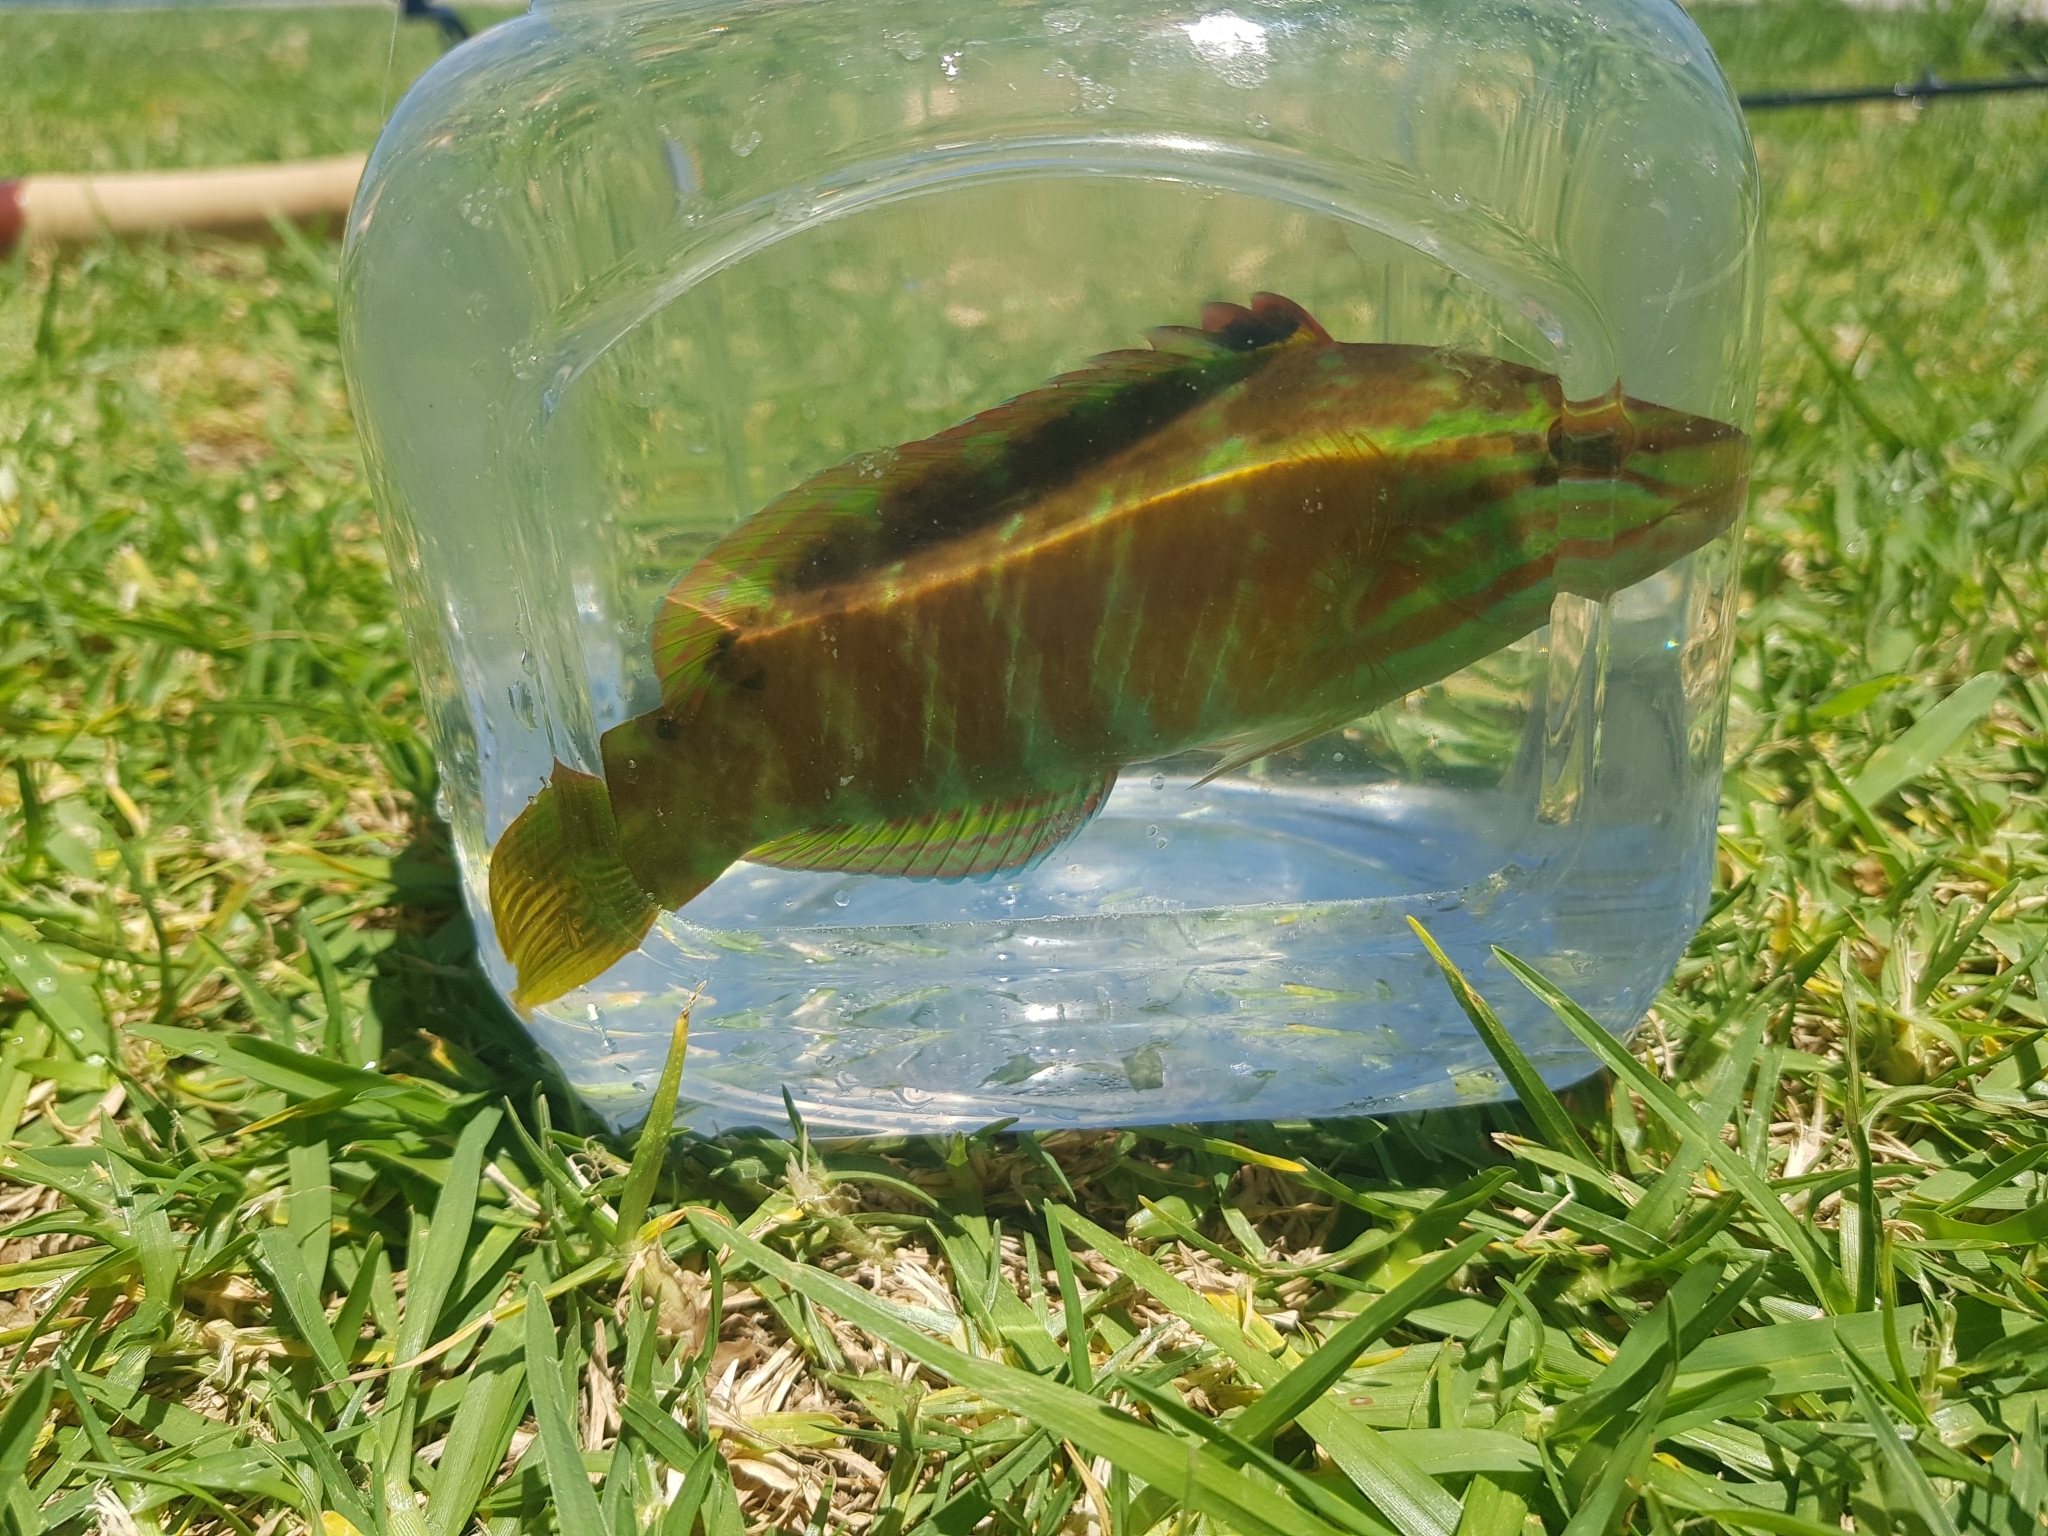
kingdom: Animalia
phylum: Chordata
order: Perciformes
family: Labridae
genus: Pseudolabrus
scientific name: Pseudolabrus guentheri
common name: Günther's wrasse
